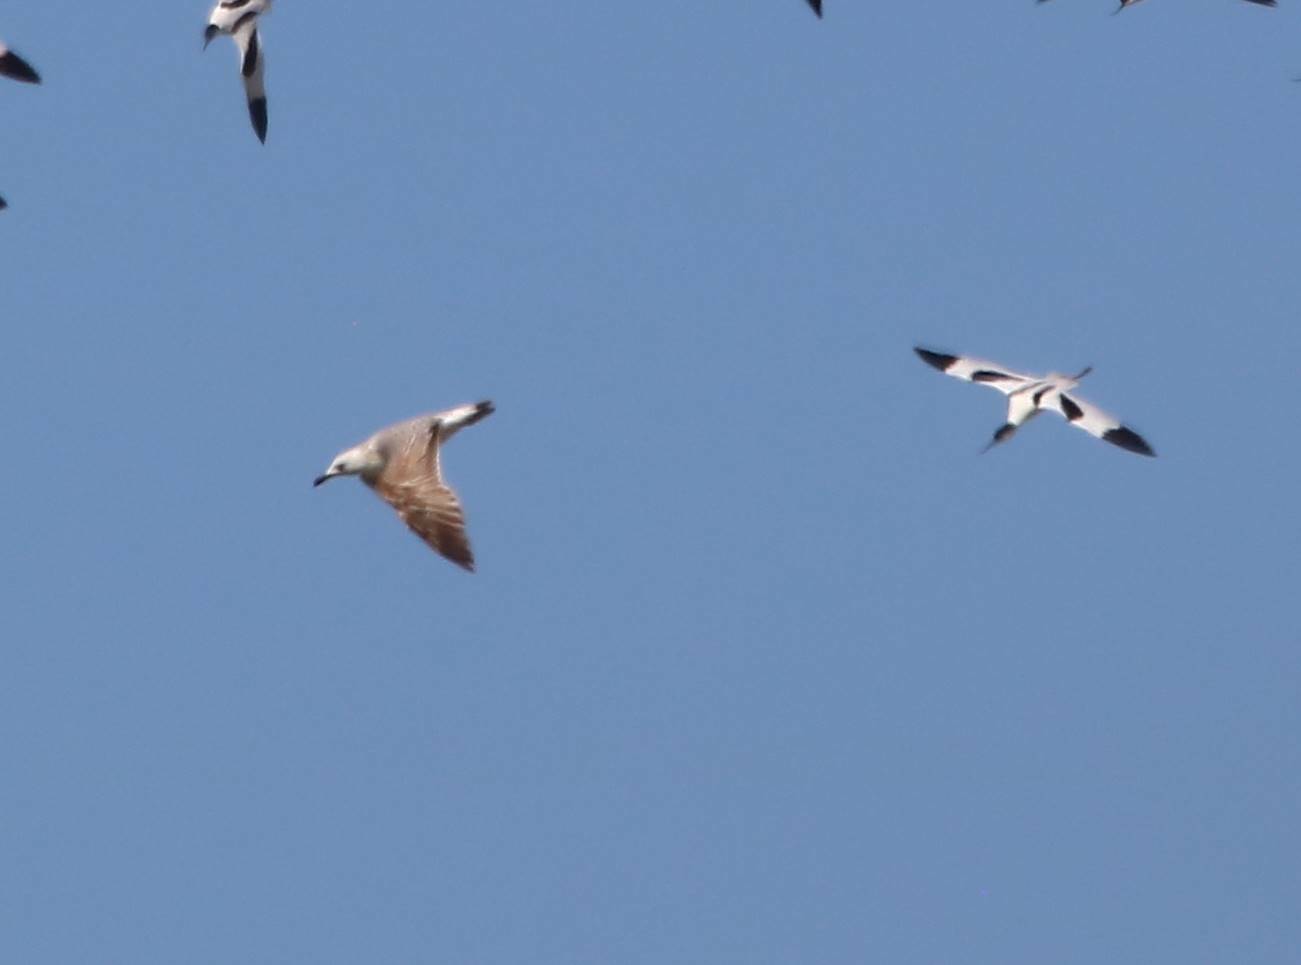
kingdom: Animalia
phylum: Chordata
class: Aves
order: Charadriiformes
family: Recurvirostridae
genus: Recurvirostra
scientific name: Recurvirostra avosetta
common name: Pied avocet
